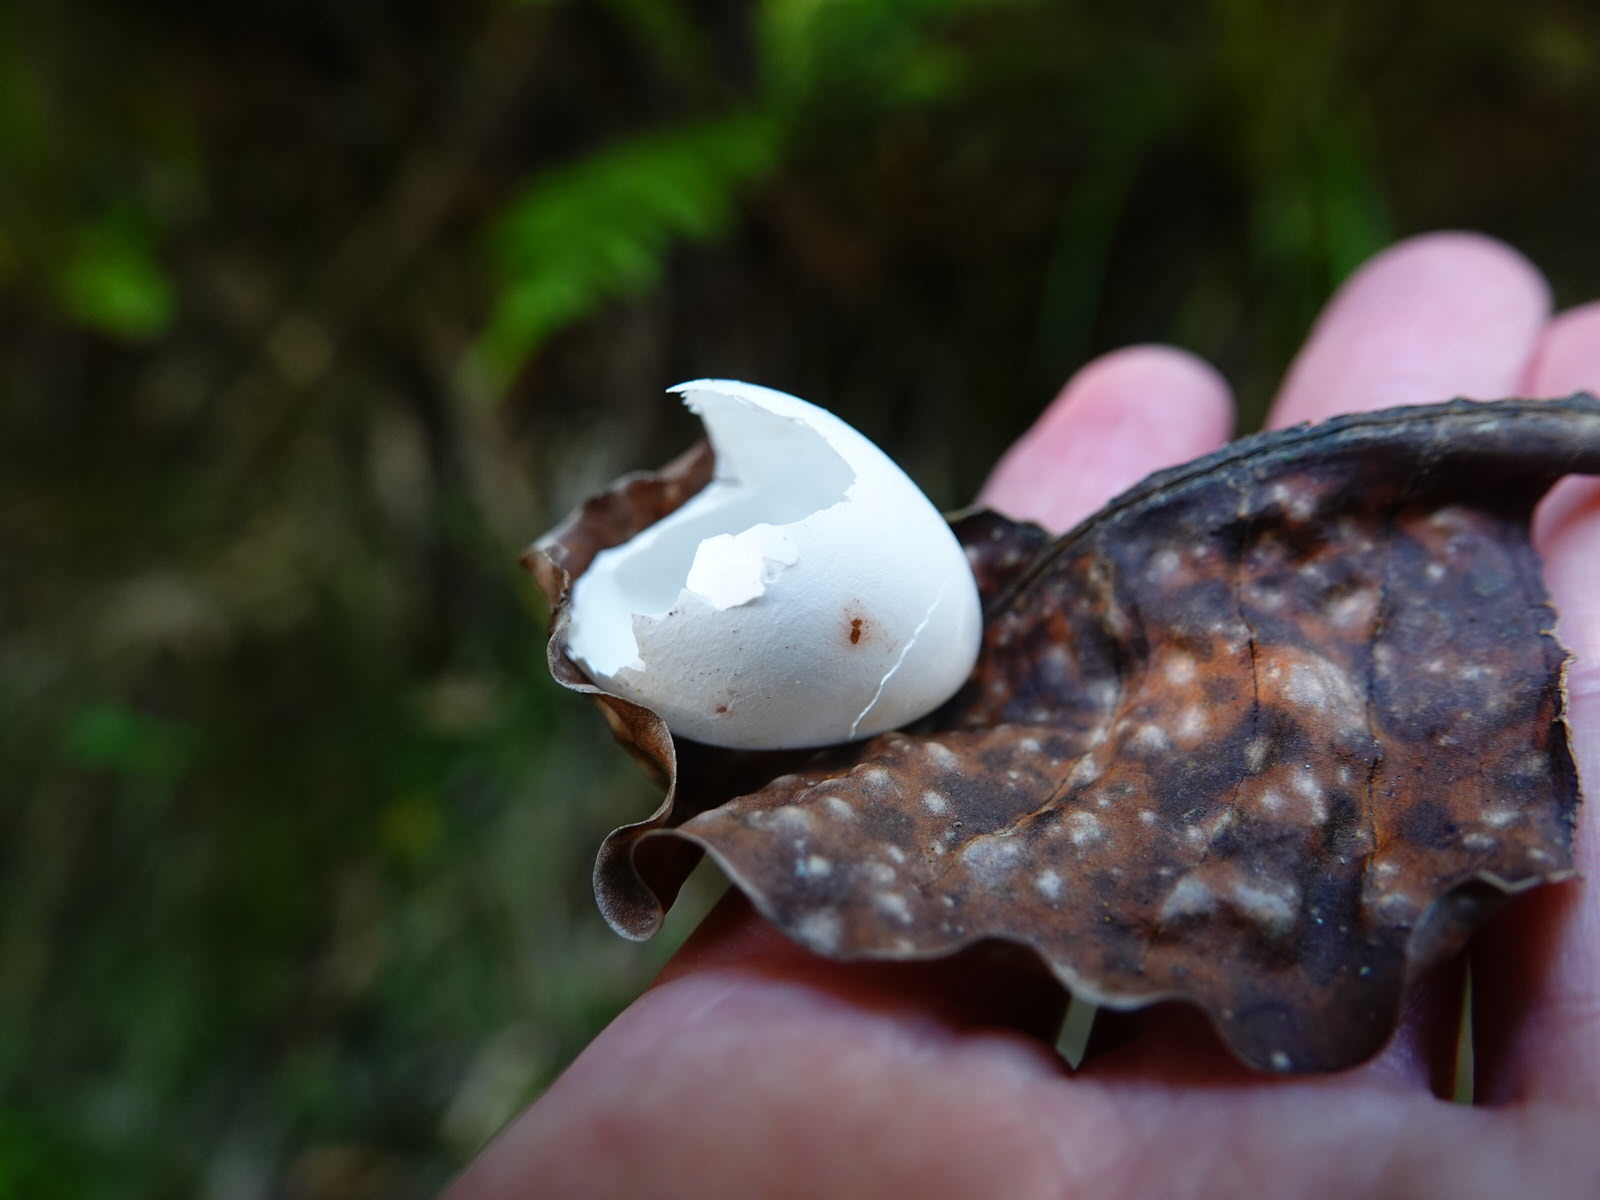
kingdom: Animalia
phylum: Chordata
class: Aves
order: Passeriformes
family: Meliphagidae
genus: Prosthemadera
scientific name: Prosthemadera novaeseelandiae
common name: Tui
